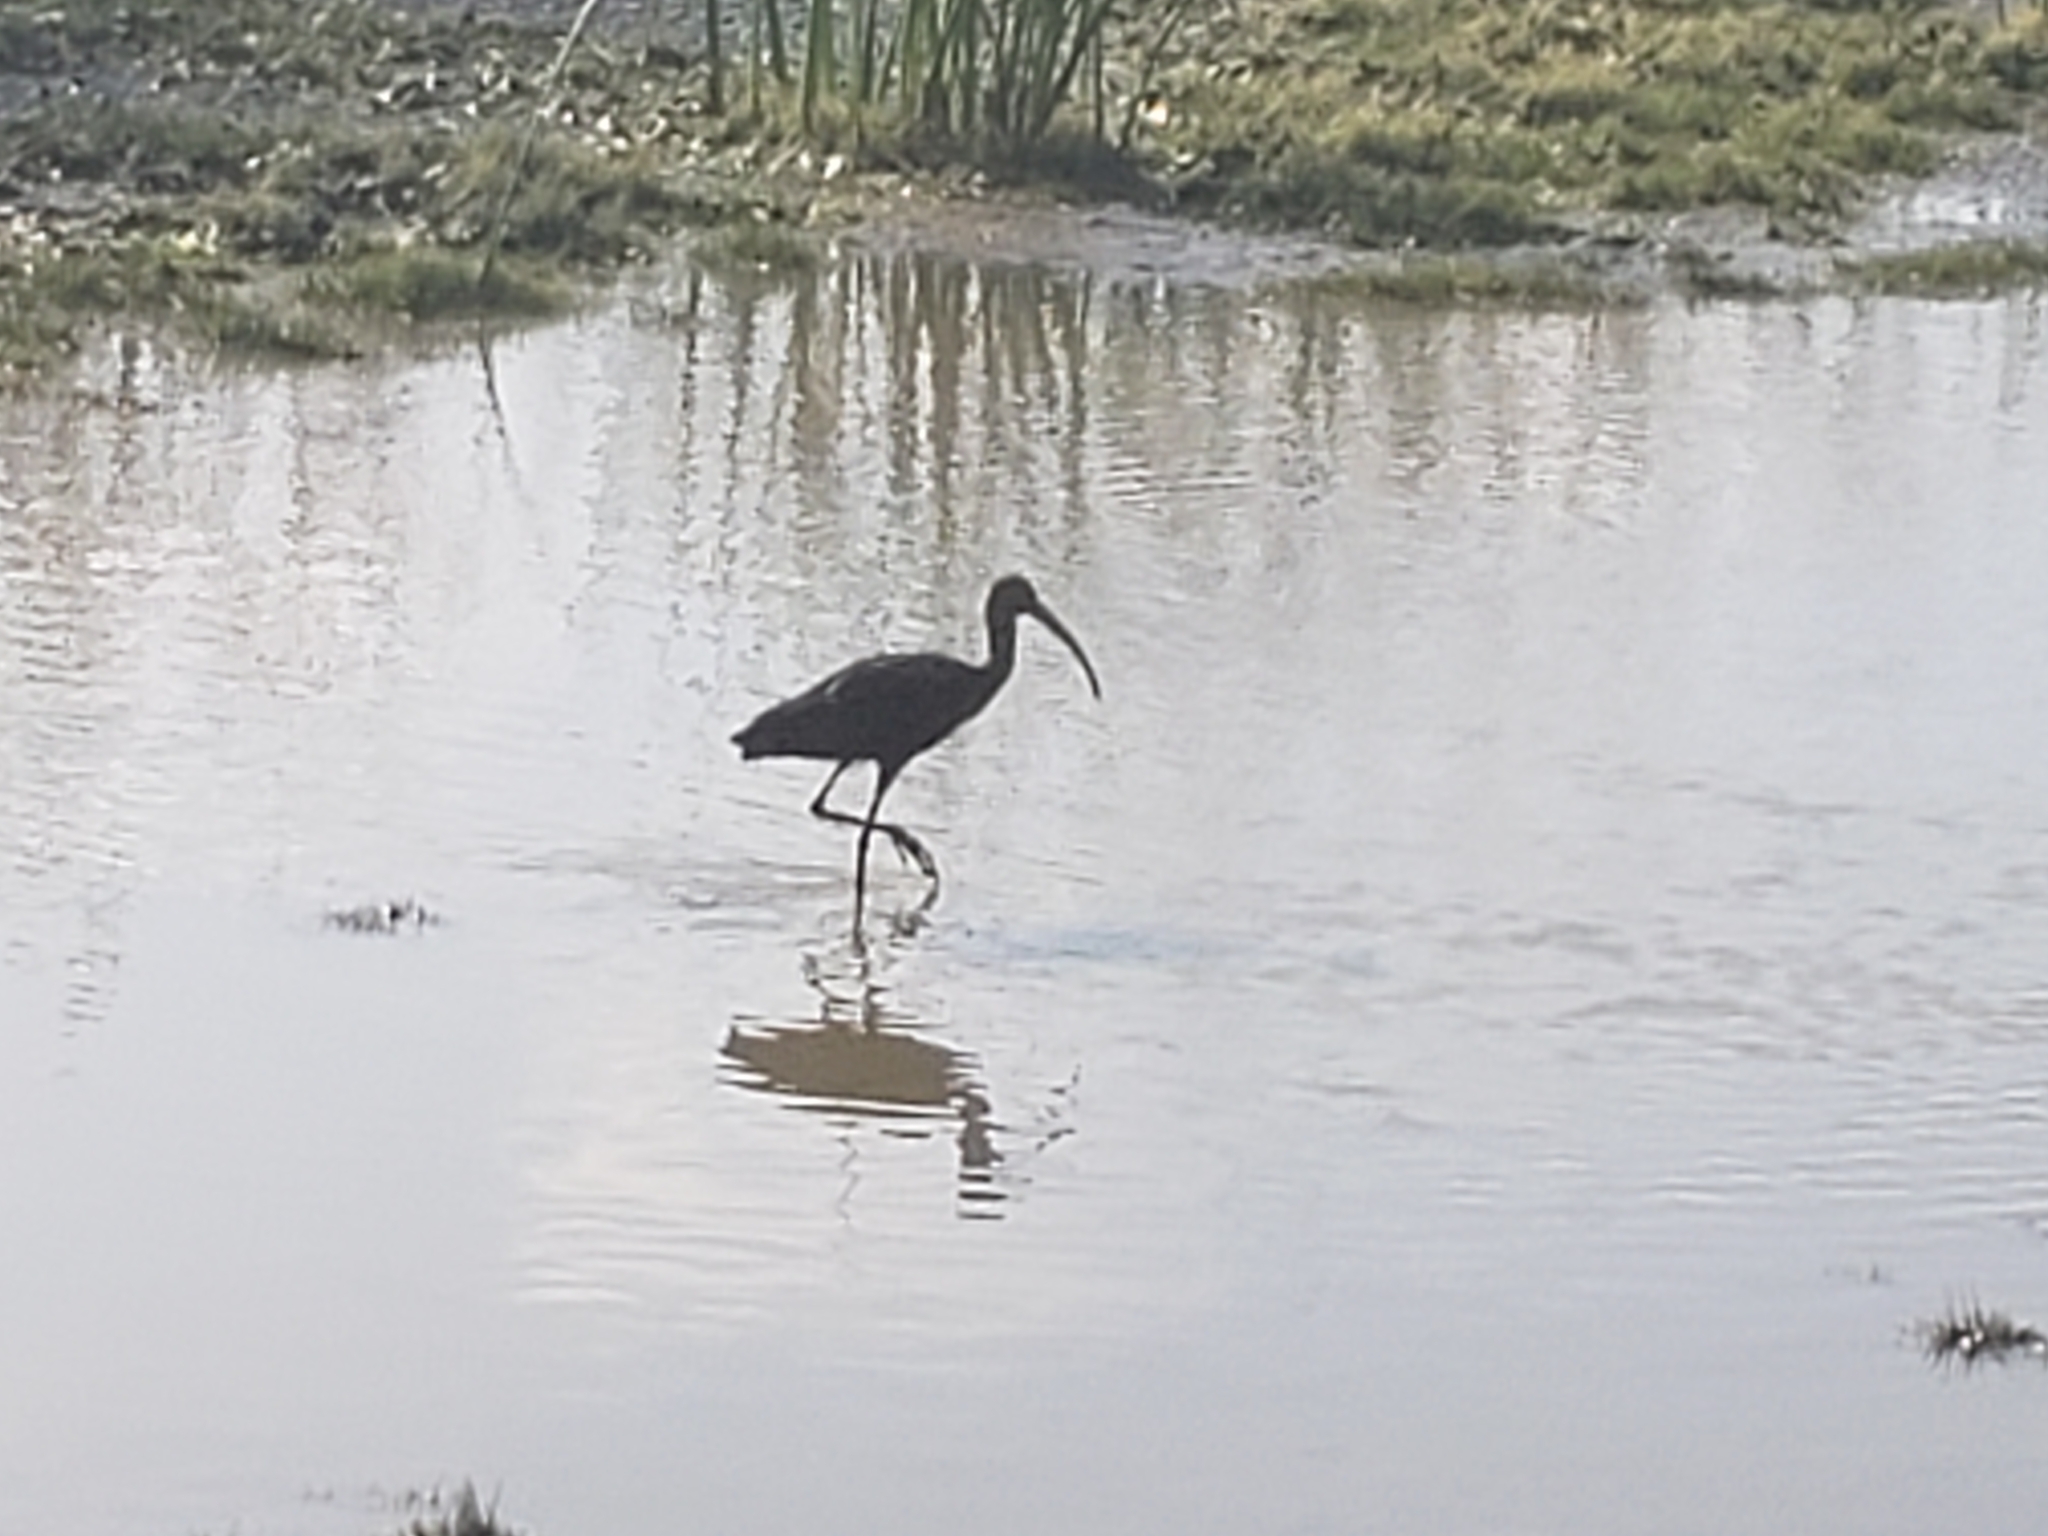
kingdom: Animalia
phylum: Chordata
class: Aves
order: Pelecaniformes
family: Threskiornithidae
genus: Plegadis
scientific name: Plegadis chihi
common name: White-faced ibis
